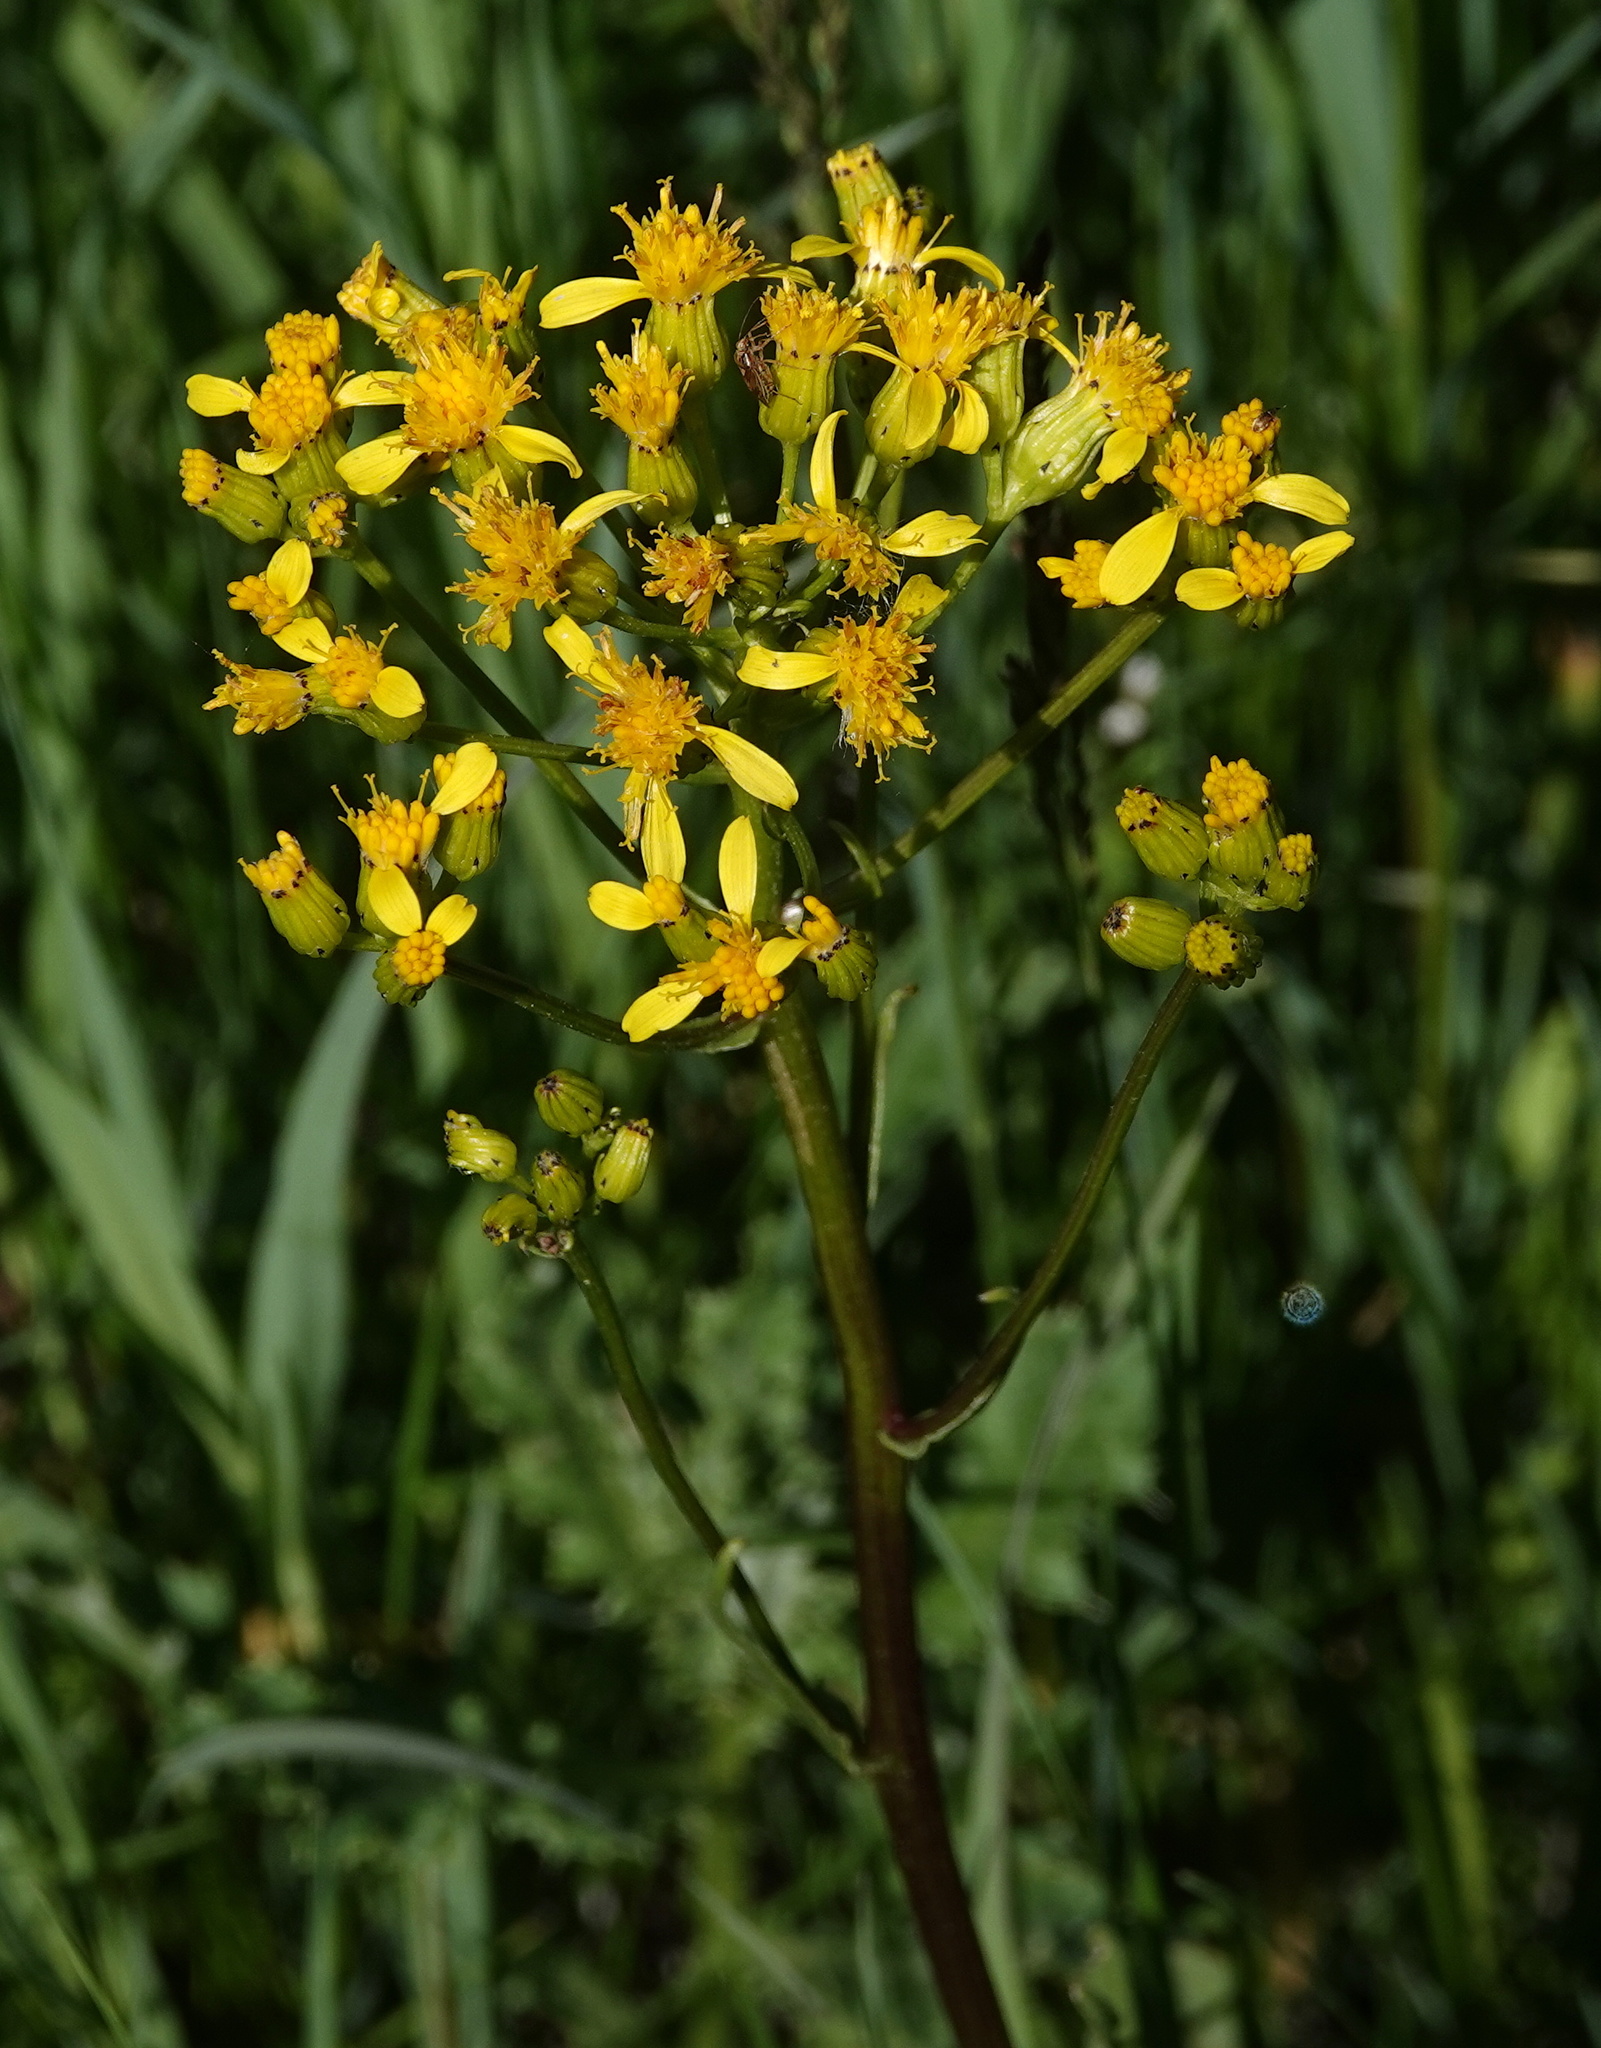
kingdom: Plantae
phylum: Tracheophyta
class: Magnoliopsida
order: Asterales
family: Asteraceae
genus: Senecio
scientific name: Senecio integerrimus
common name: Gaugeplant
